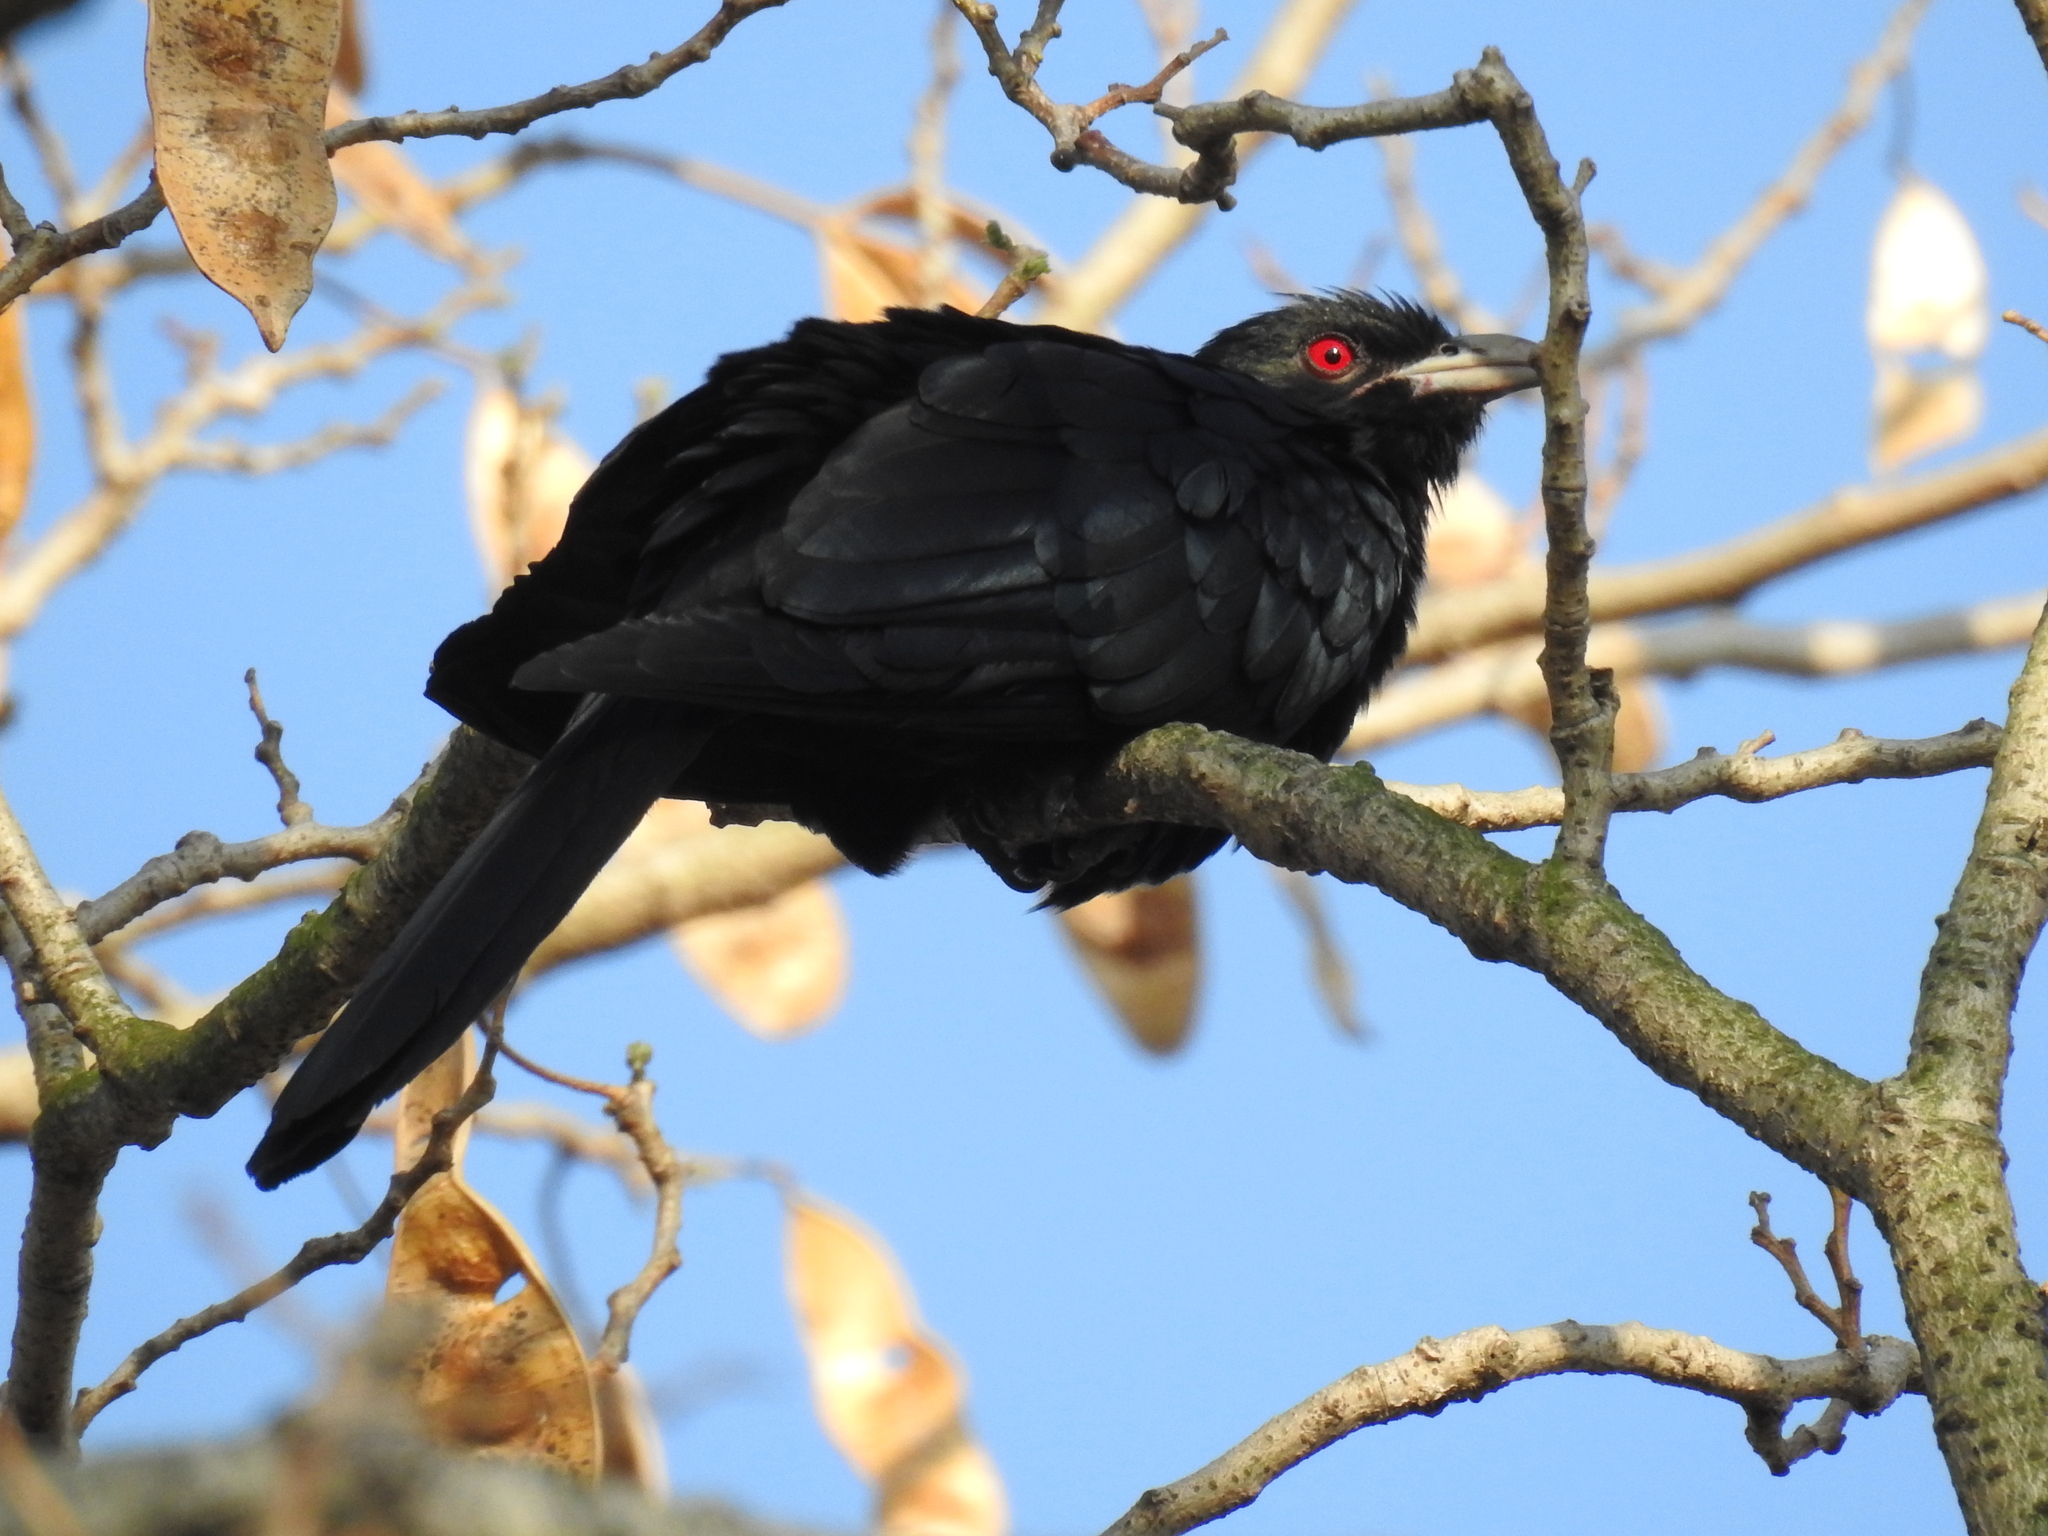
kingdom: Animalia
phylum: Chordata
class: Aves
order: Cuculiformes
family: Cuculidae
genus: Eudynamys
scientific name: Eudynamys scolopaceus
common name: Asian koel
